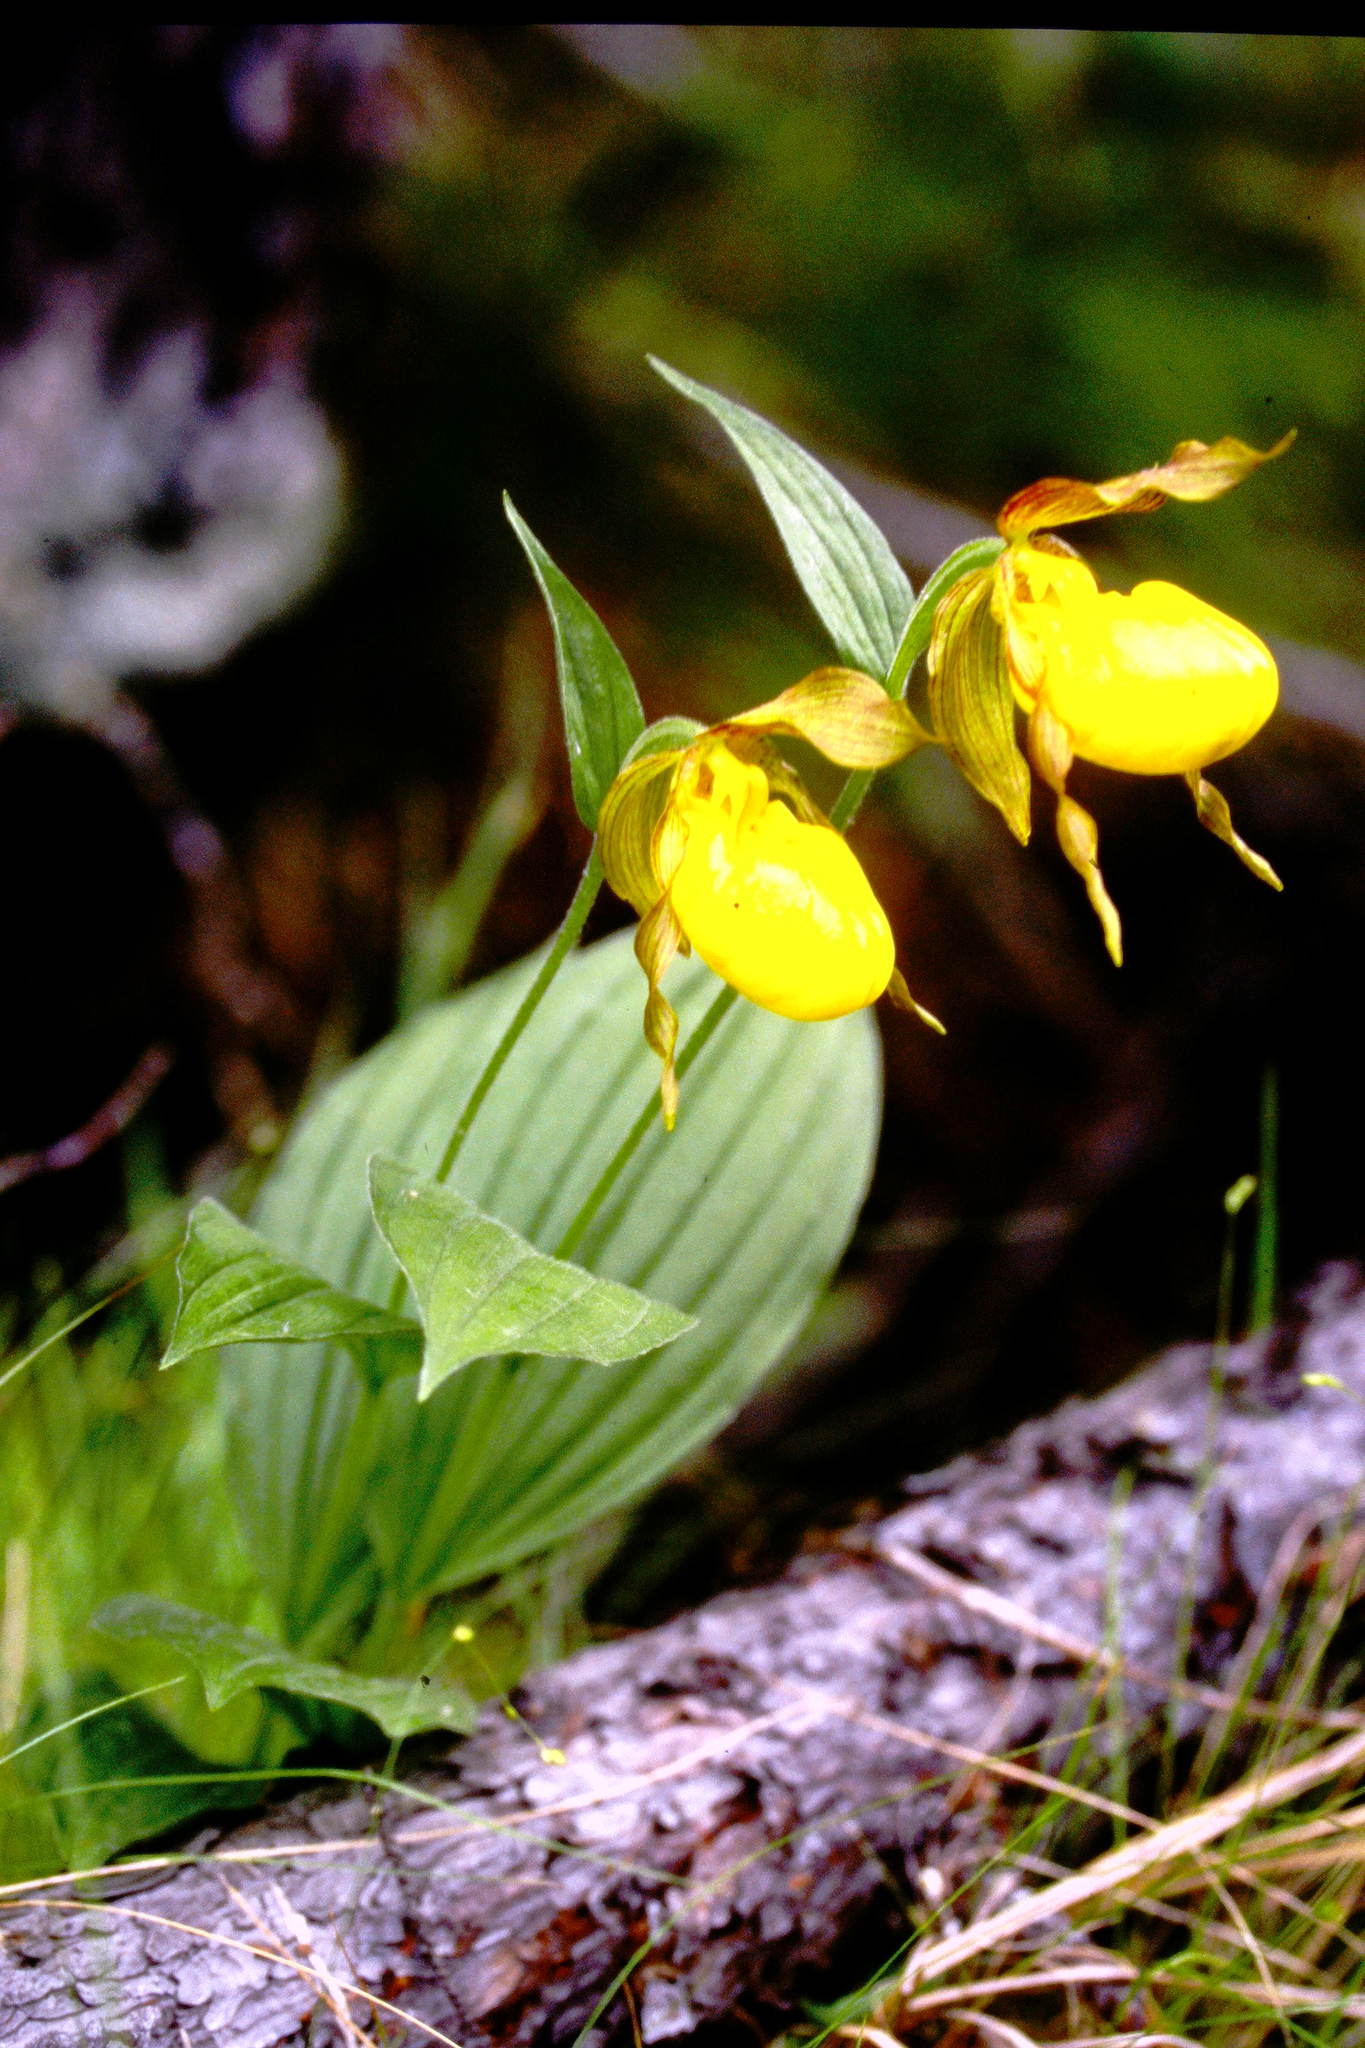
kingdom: Plantae
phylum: Tracheophyta
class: Liliopsida
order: Asparagales
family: Orchidaceae
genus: Cypripedium
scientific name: Cypripedium parviflorum
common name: American yellow lady's-slipper
